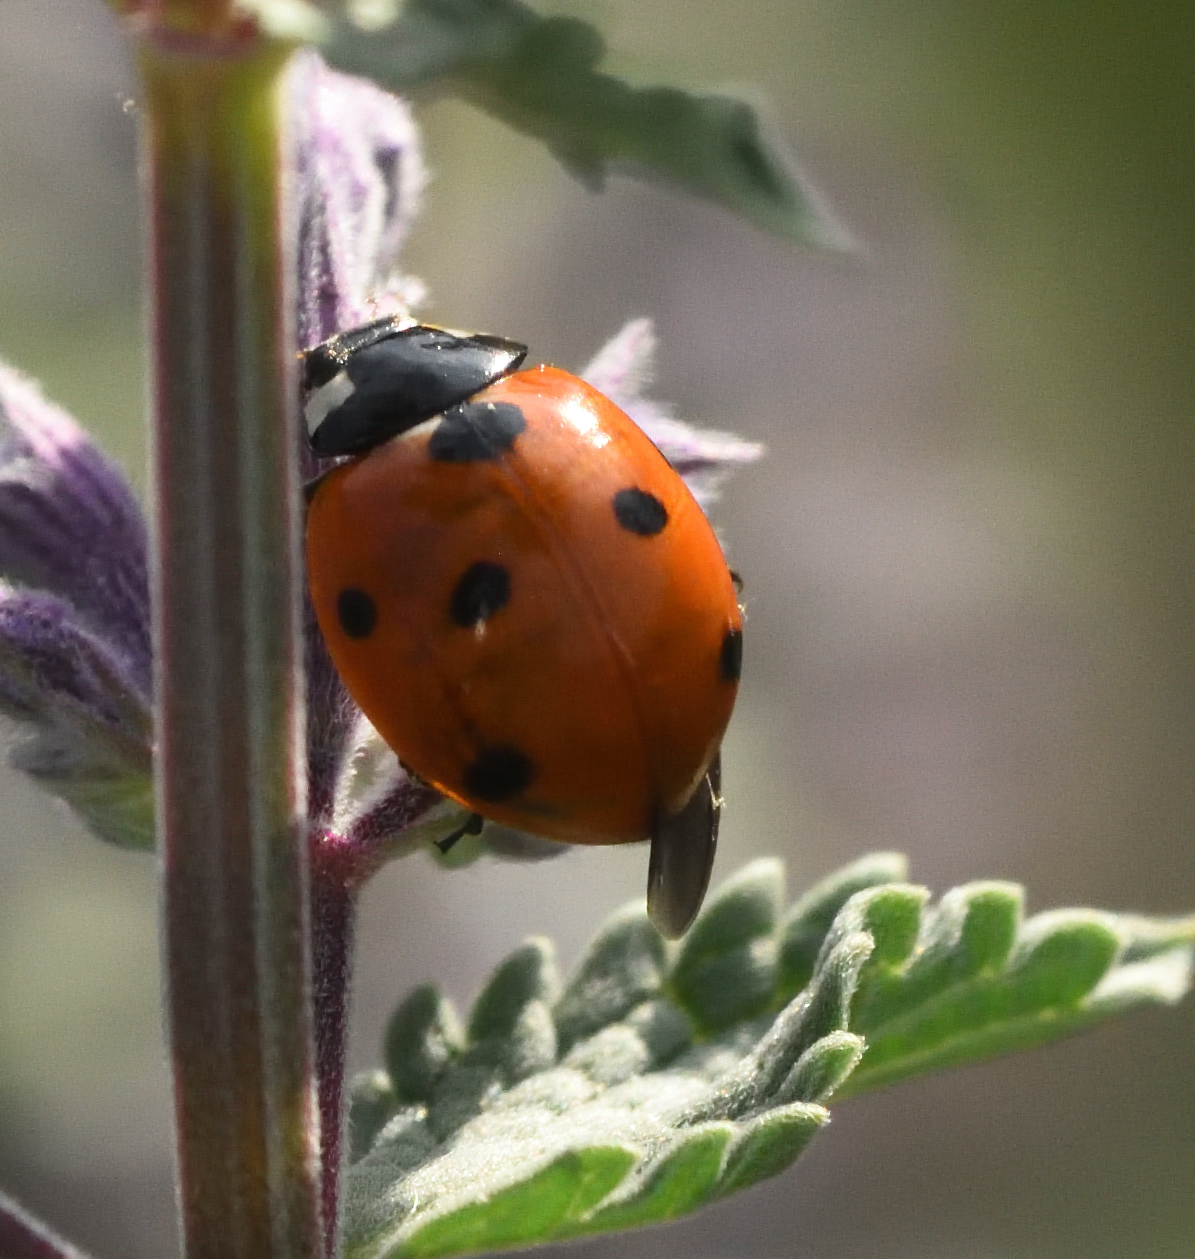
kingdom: Animalia
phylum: Arthropoda
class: Insecta
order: Coleoptera
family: Coccinellidae
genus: Coccinella
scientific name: Coccinella septempunctata
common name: Sevenspotted lady beetle
